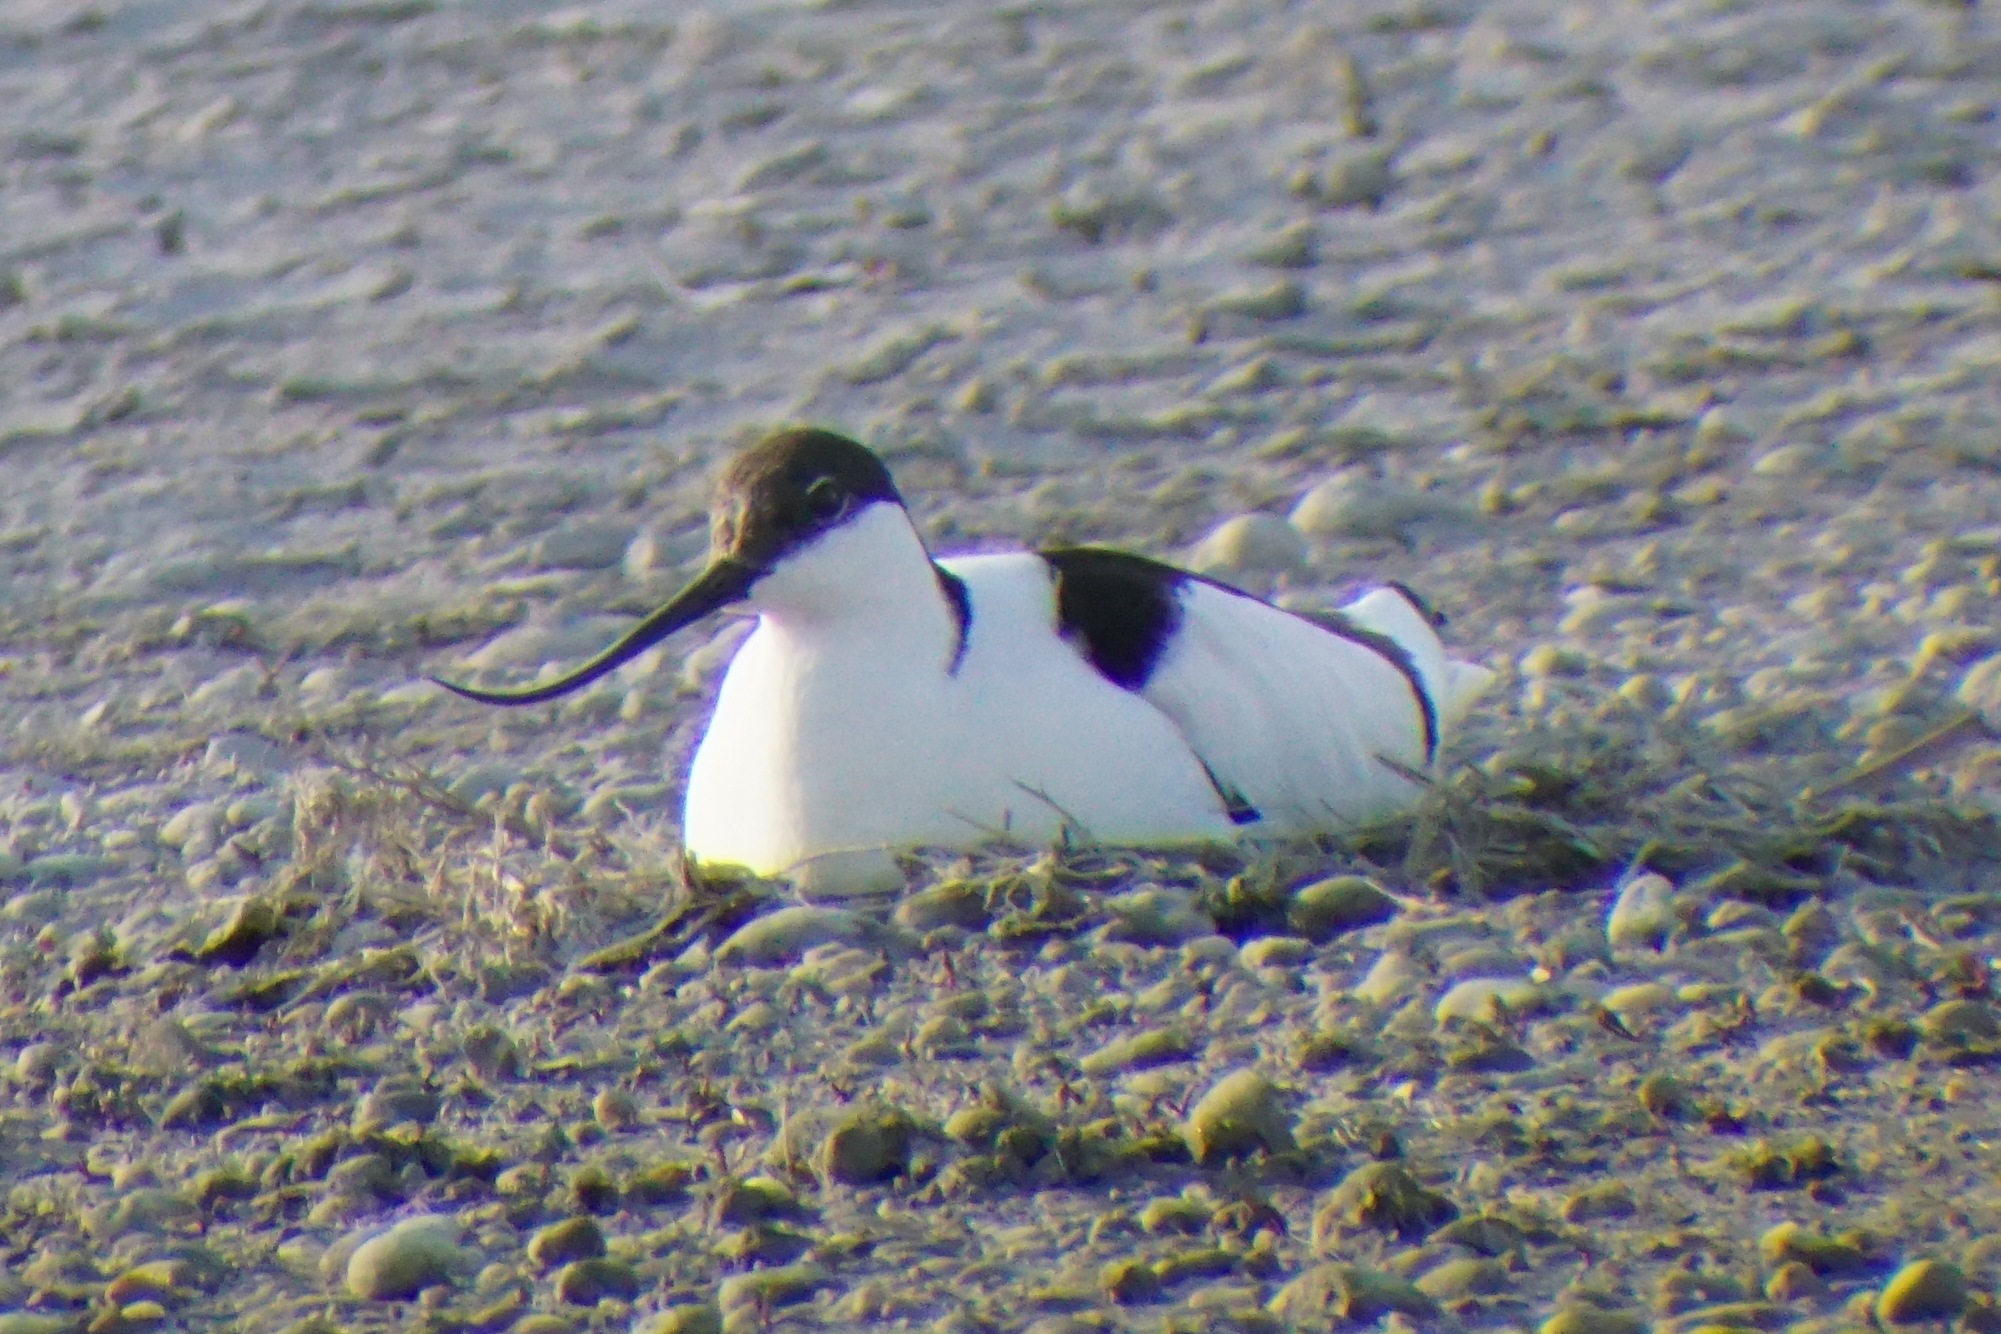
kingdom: Animalia
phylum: Chordata
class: Aves
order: Charadriiformes
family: Recurvirostridae
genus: Recurvirostra
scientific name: Recurvirostra avosetta
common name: Pied avocet
